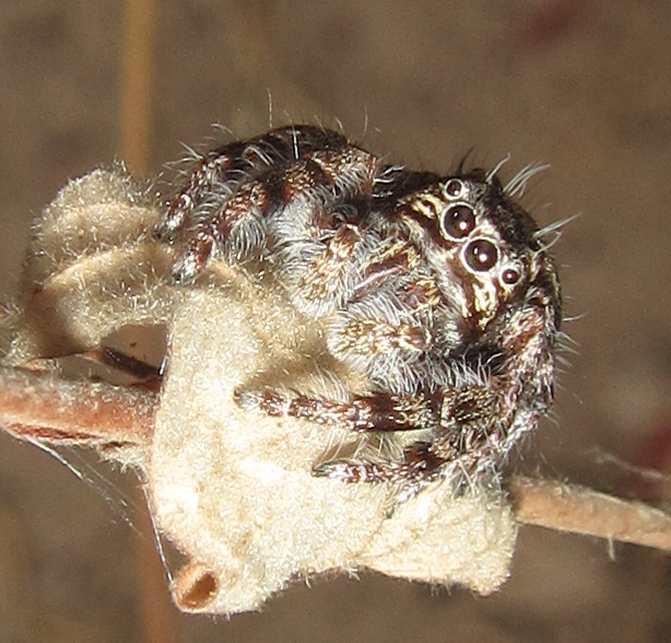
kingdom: Animalia
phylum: Arthropoda
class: Arachnida
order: Araneae
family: Salticidae
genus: Hyllus
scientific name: Hyllus brevitarsis
